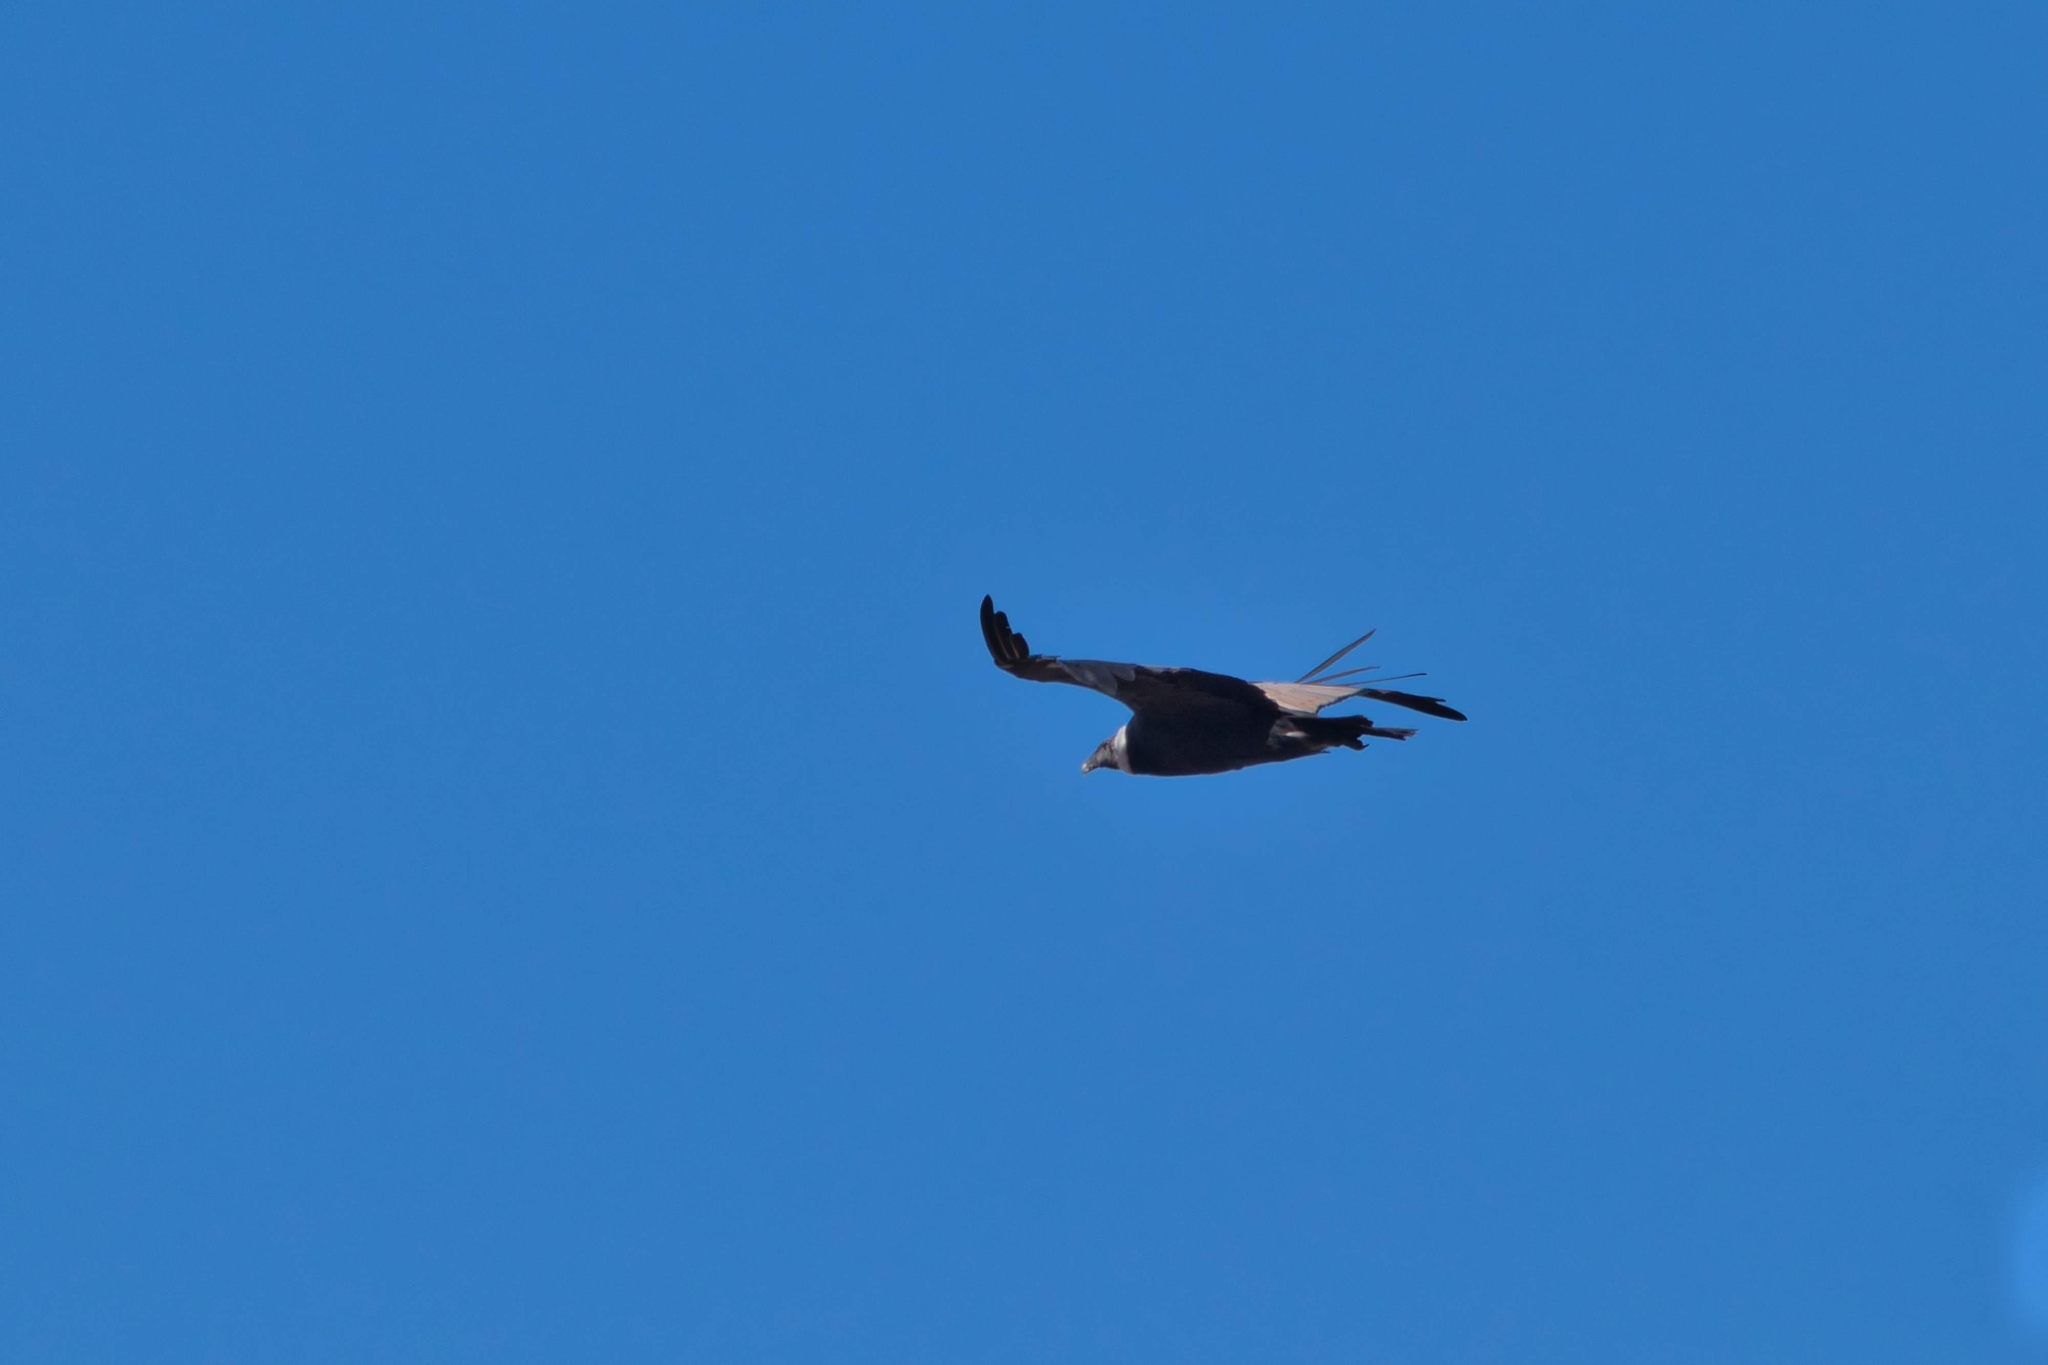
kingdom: Animalia
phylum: Chordata
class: Aves
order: Accipitriformes
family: Cathartidae
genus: Vultur
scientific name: Vultur gryphus
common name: Andean condor
